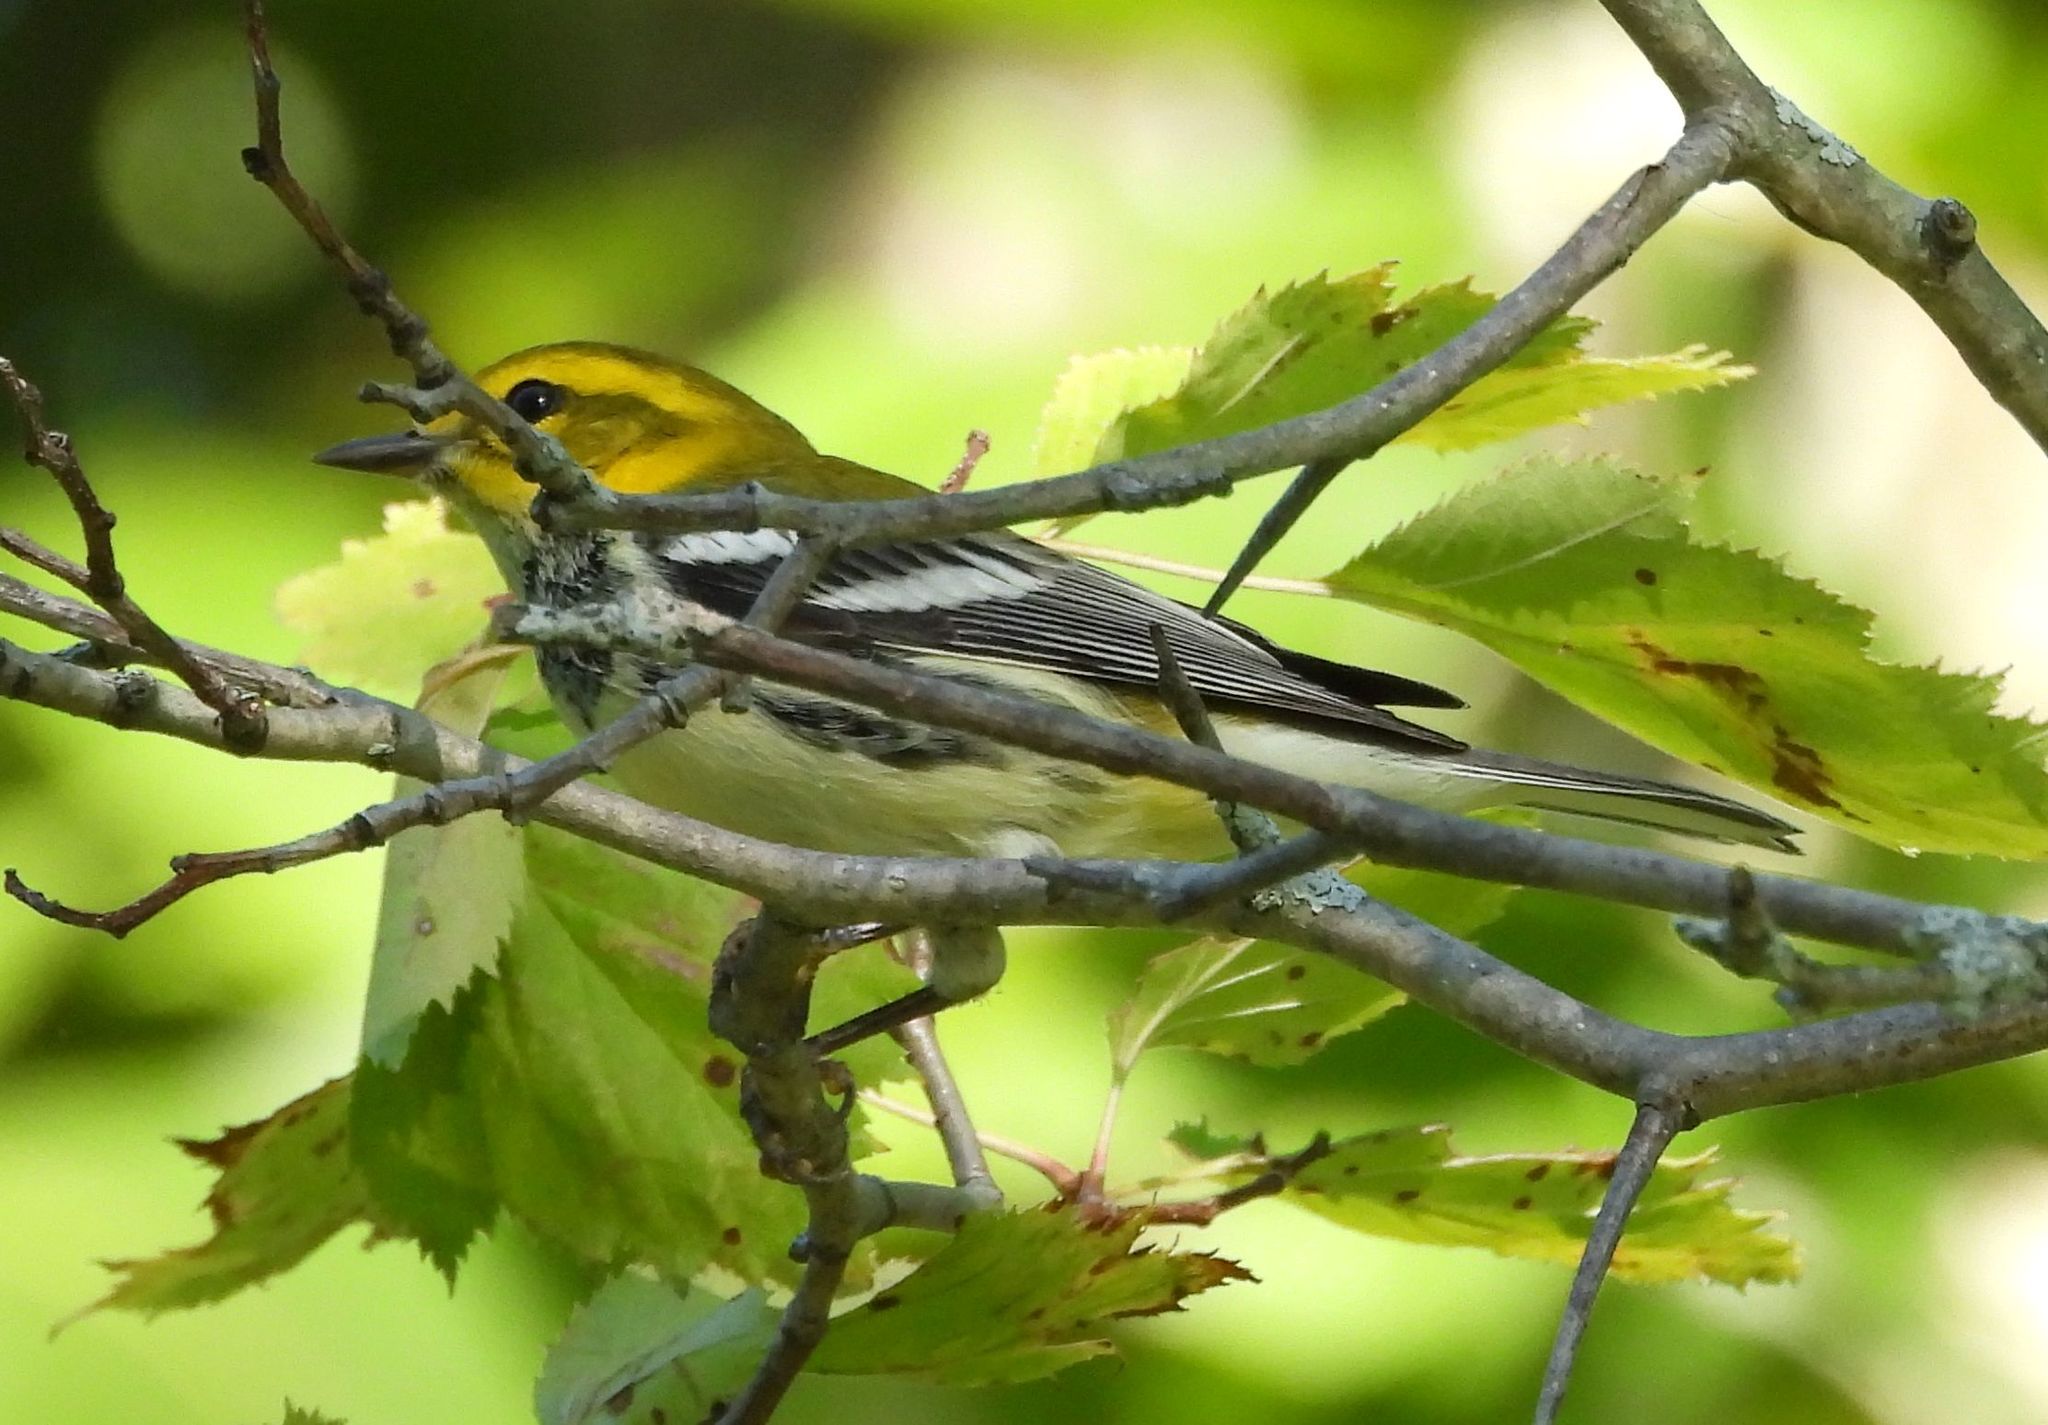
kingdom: Animalia
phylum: Chordata
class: Aves
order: Passeriformes
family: Parulidae
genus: Setophaga
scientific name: Setophaga virens
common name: Black-throated green warbler
